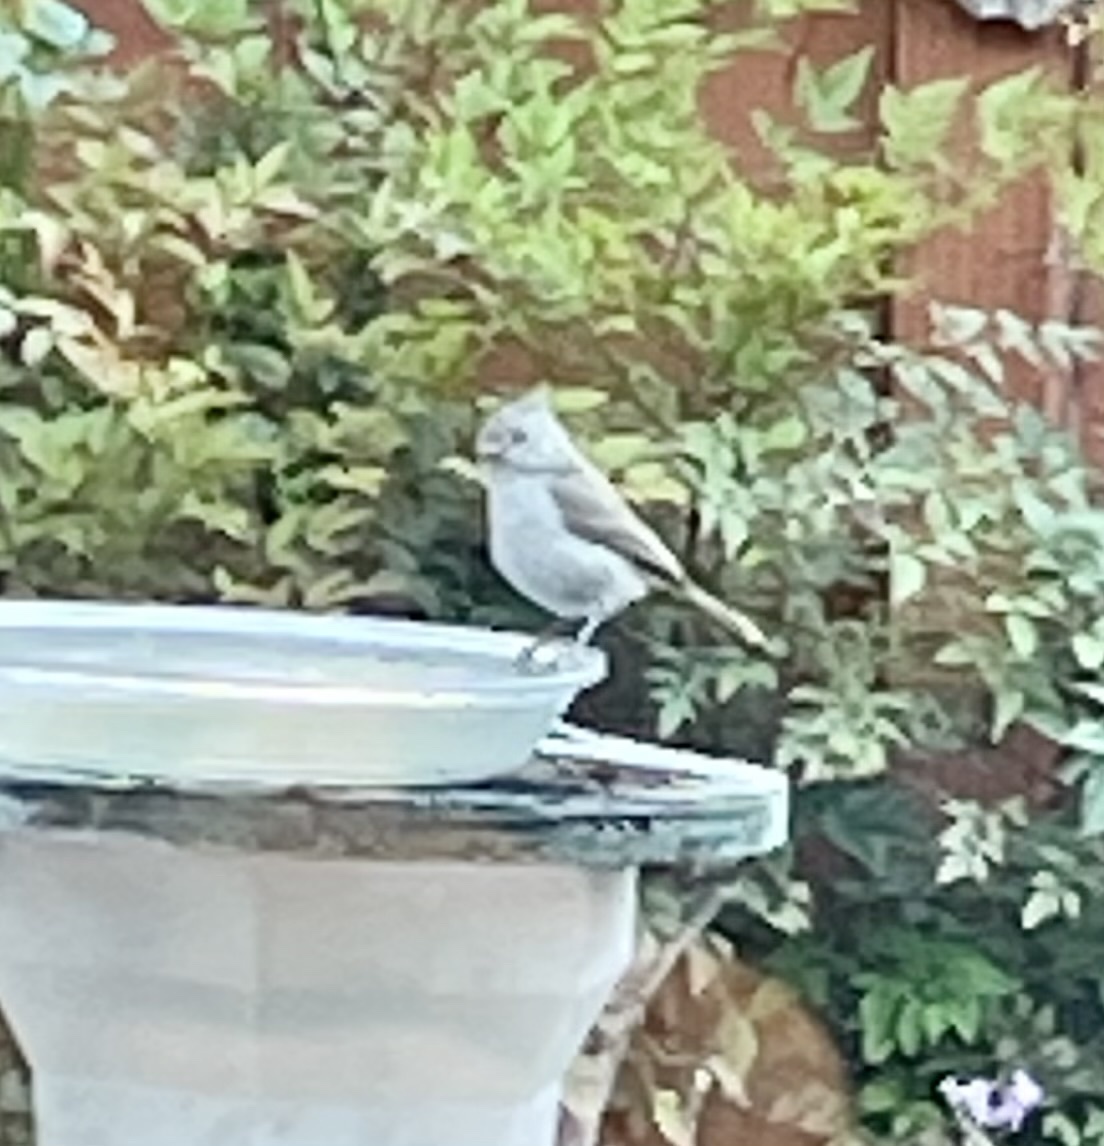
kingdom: Animalia
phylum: Chordata
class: Aves
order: Passeriformes
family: Paridae
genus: Baeolophus
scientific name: Baeolophus inornatus
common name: Oak titmouse
